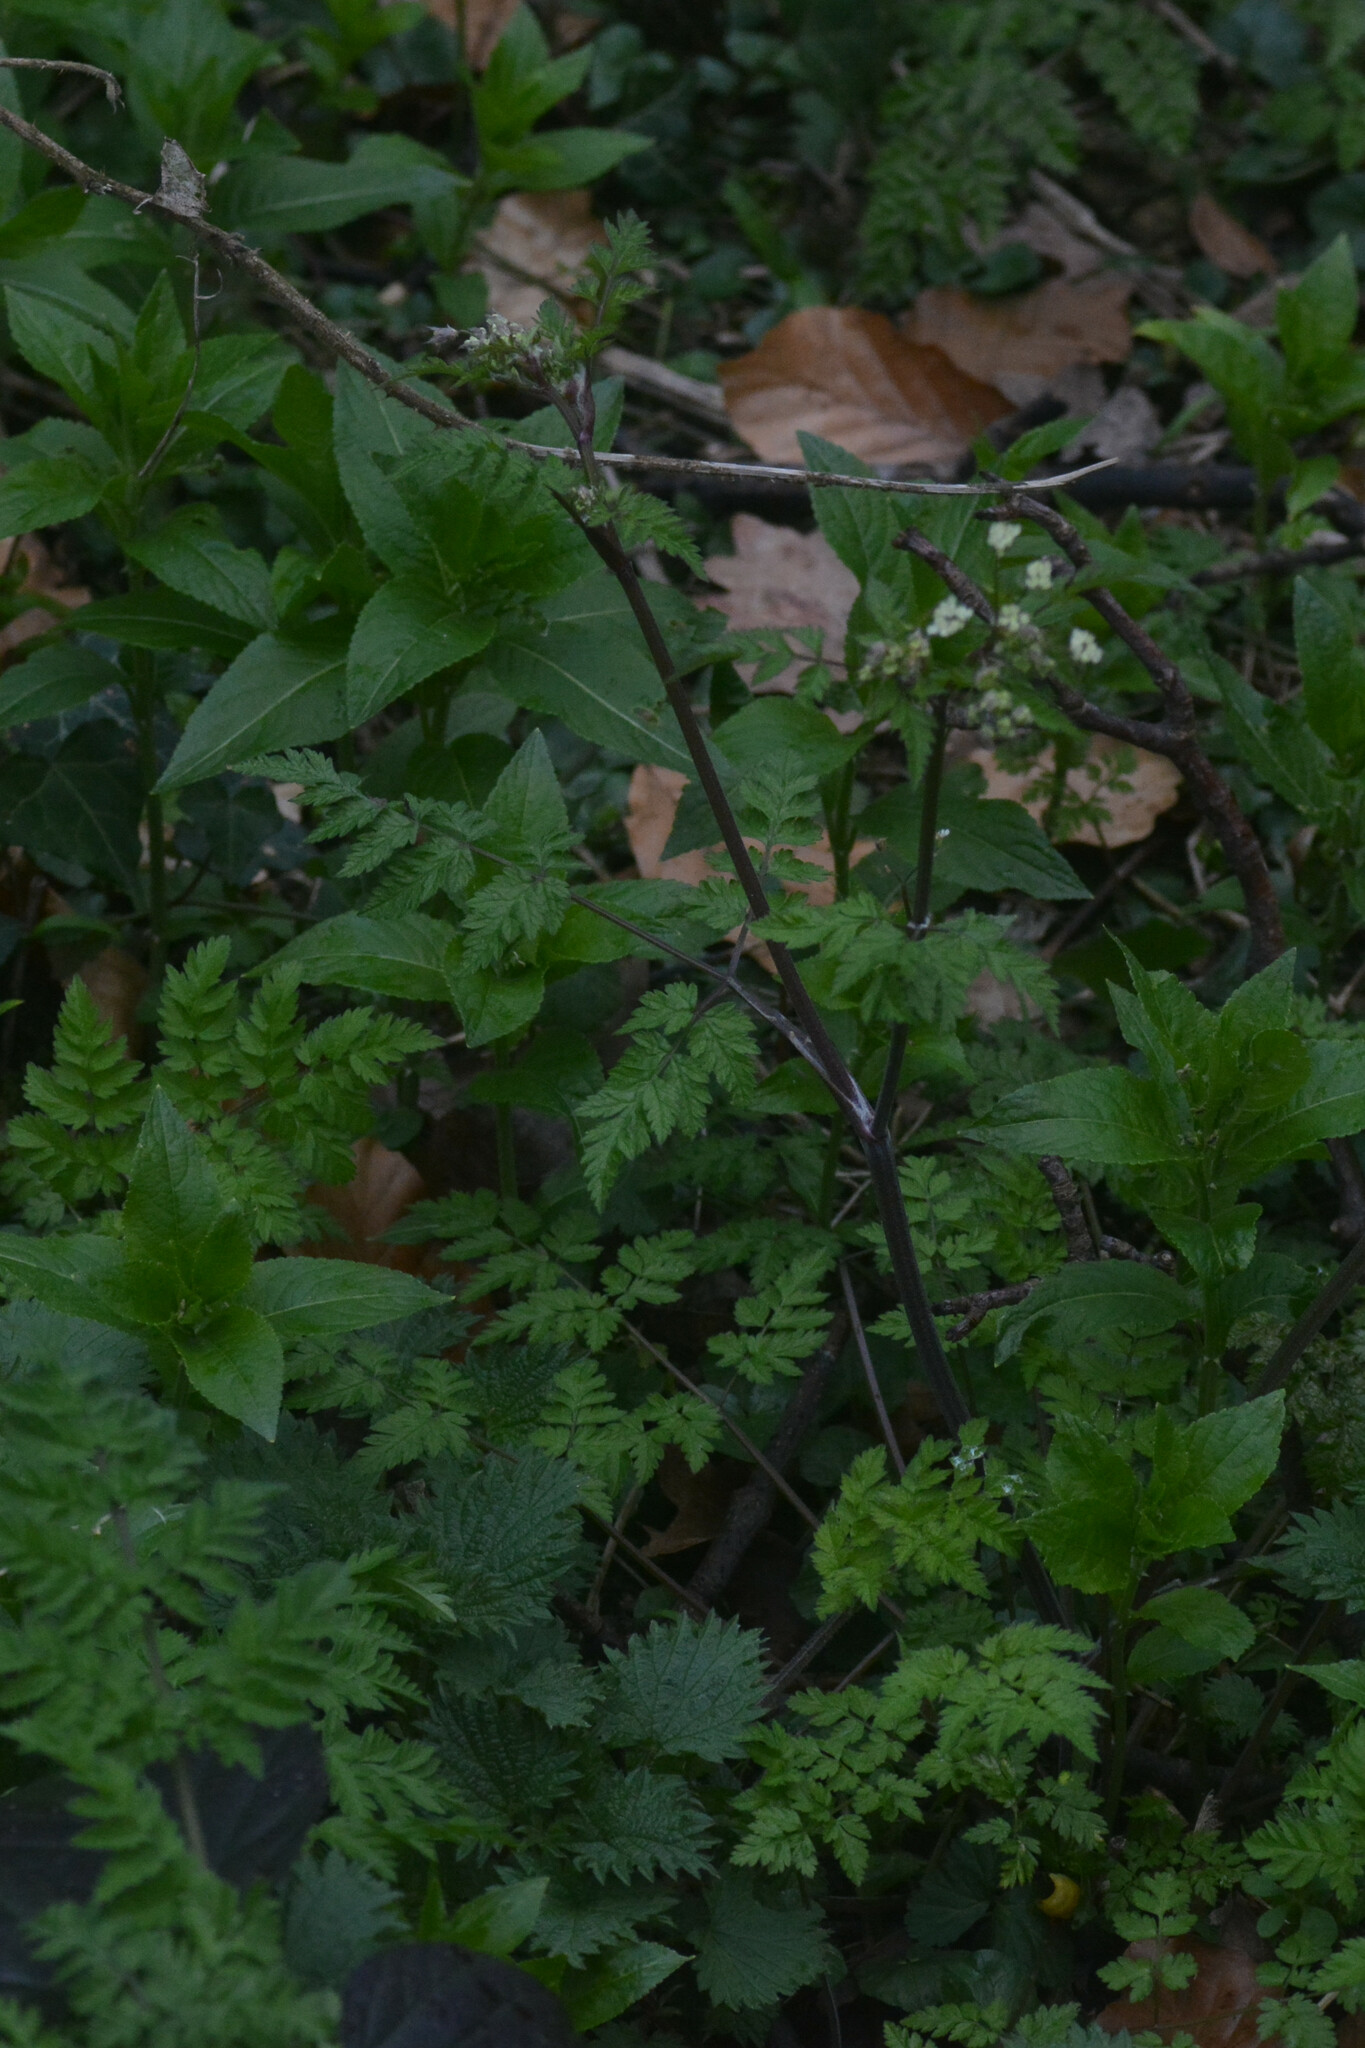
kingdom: Plantae
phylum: Tracheophyta
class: Magnoliopsida
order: Apiales
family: Apiaceae
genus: Anthriscus
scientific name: Anthriscus sylvestris
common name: Cow parsley
